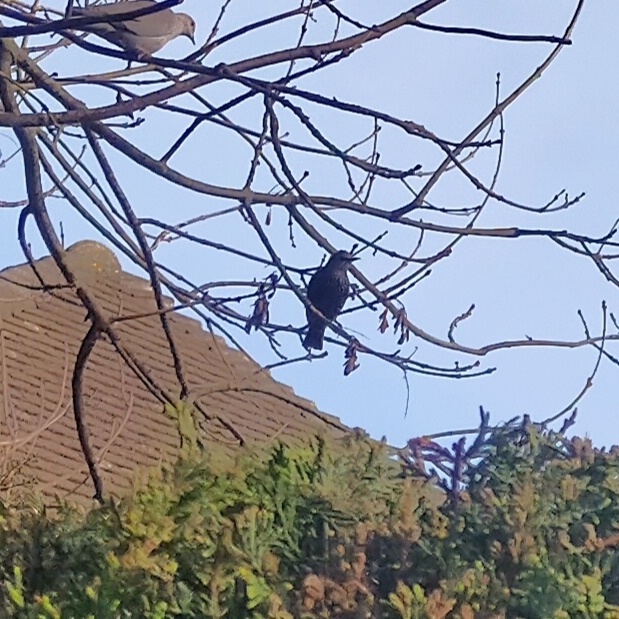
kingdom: Animalia
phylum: Chordata
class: Aves
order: Passeriformes
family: Sturnidae
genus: Sturnus
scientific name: Sturnus vulgaris
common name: Common starling
